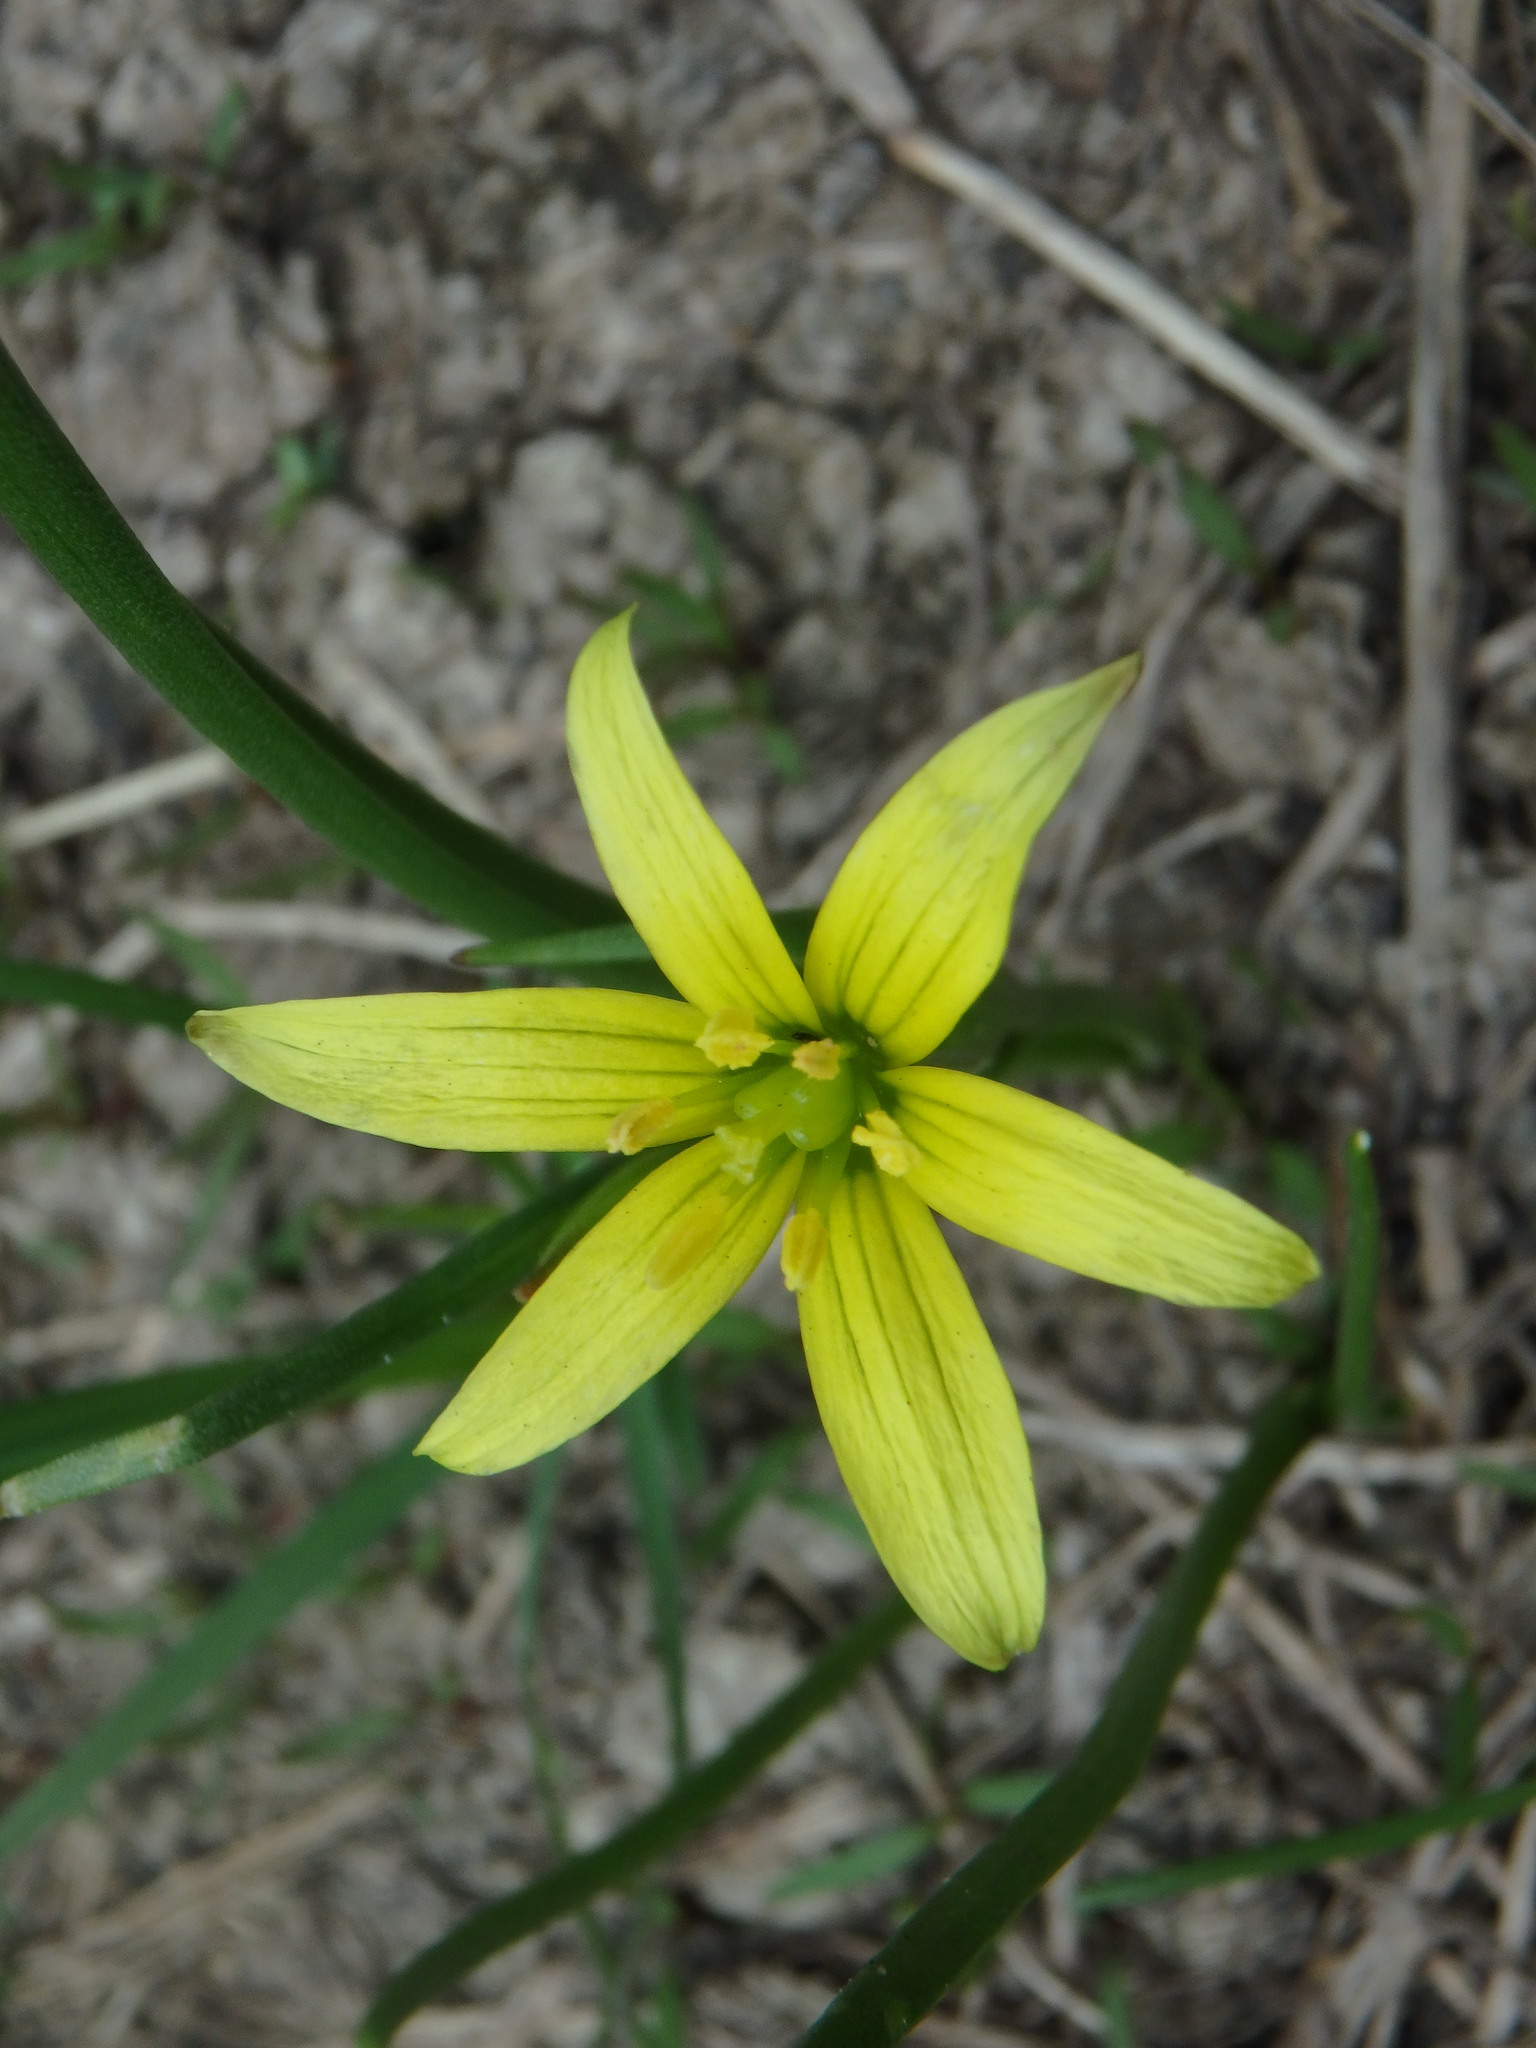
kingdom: Plantae
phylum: Tracheophyta
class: Liliopsida
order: Liliales
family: Liliaceae
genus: Gagea
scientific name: Gagea lutea
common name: Yellow star-of-bethlehem
